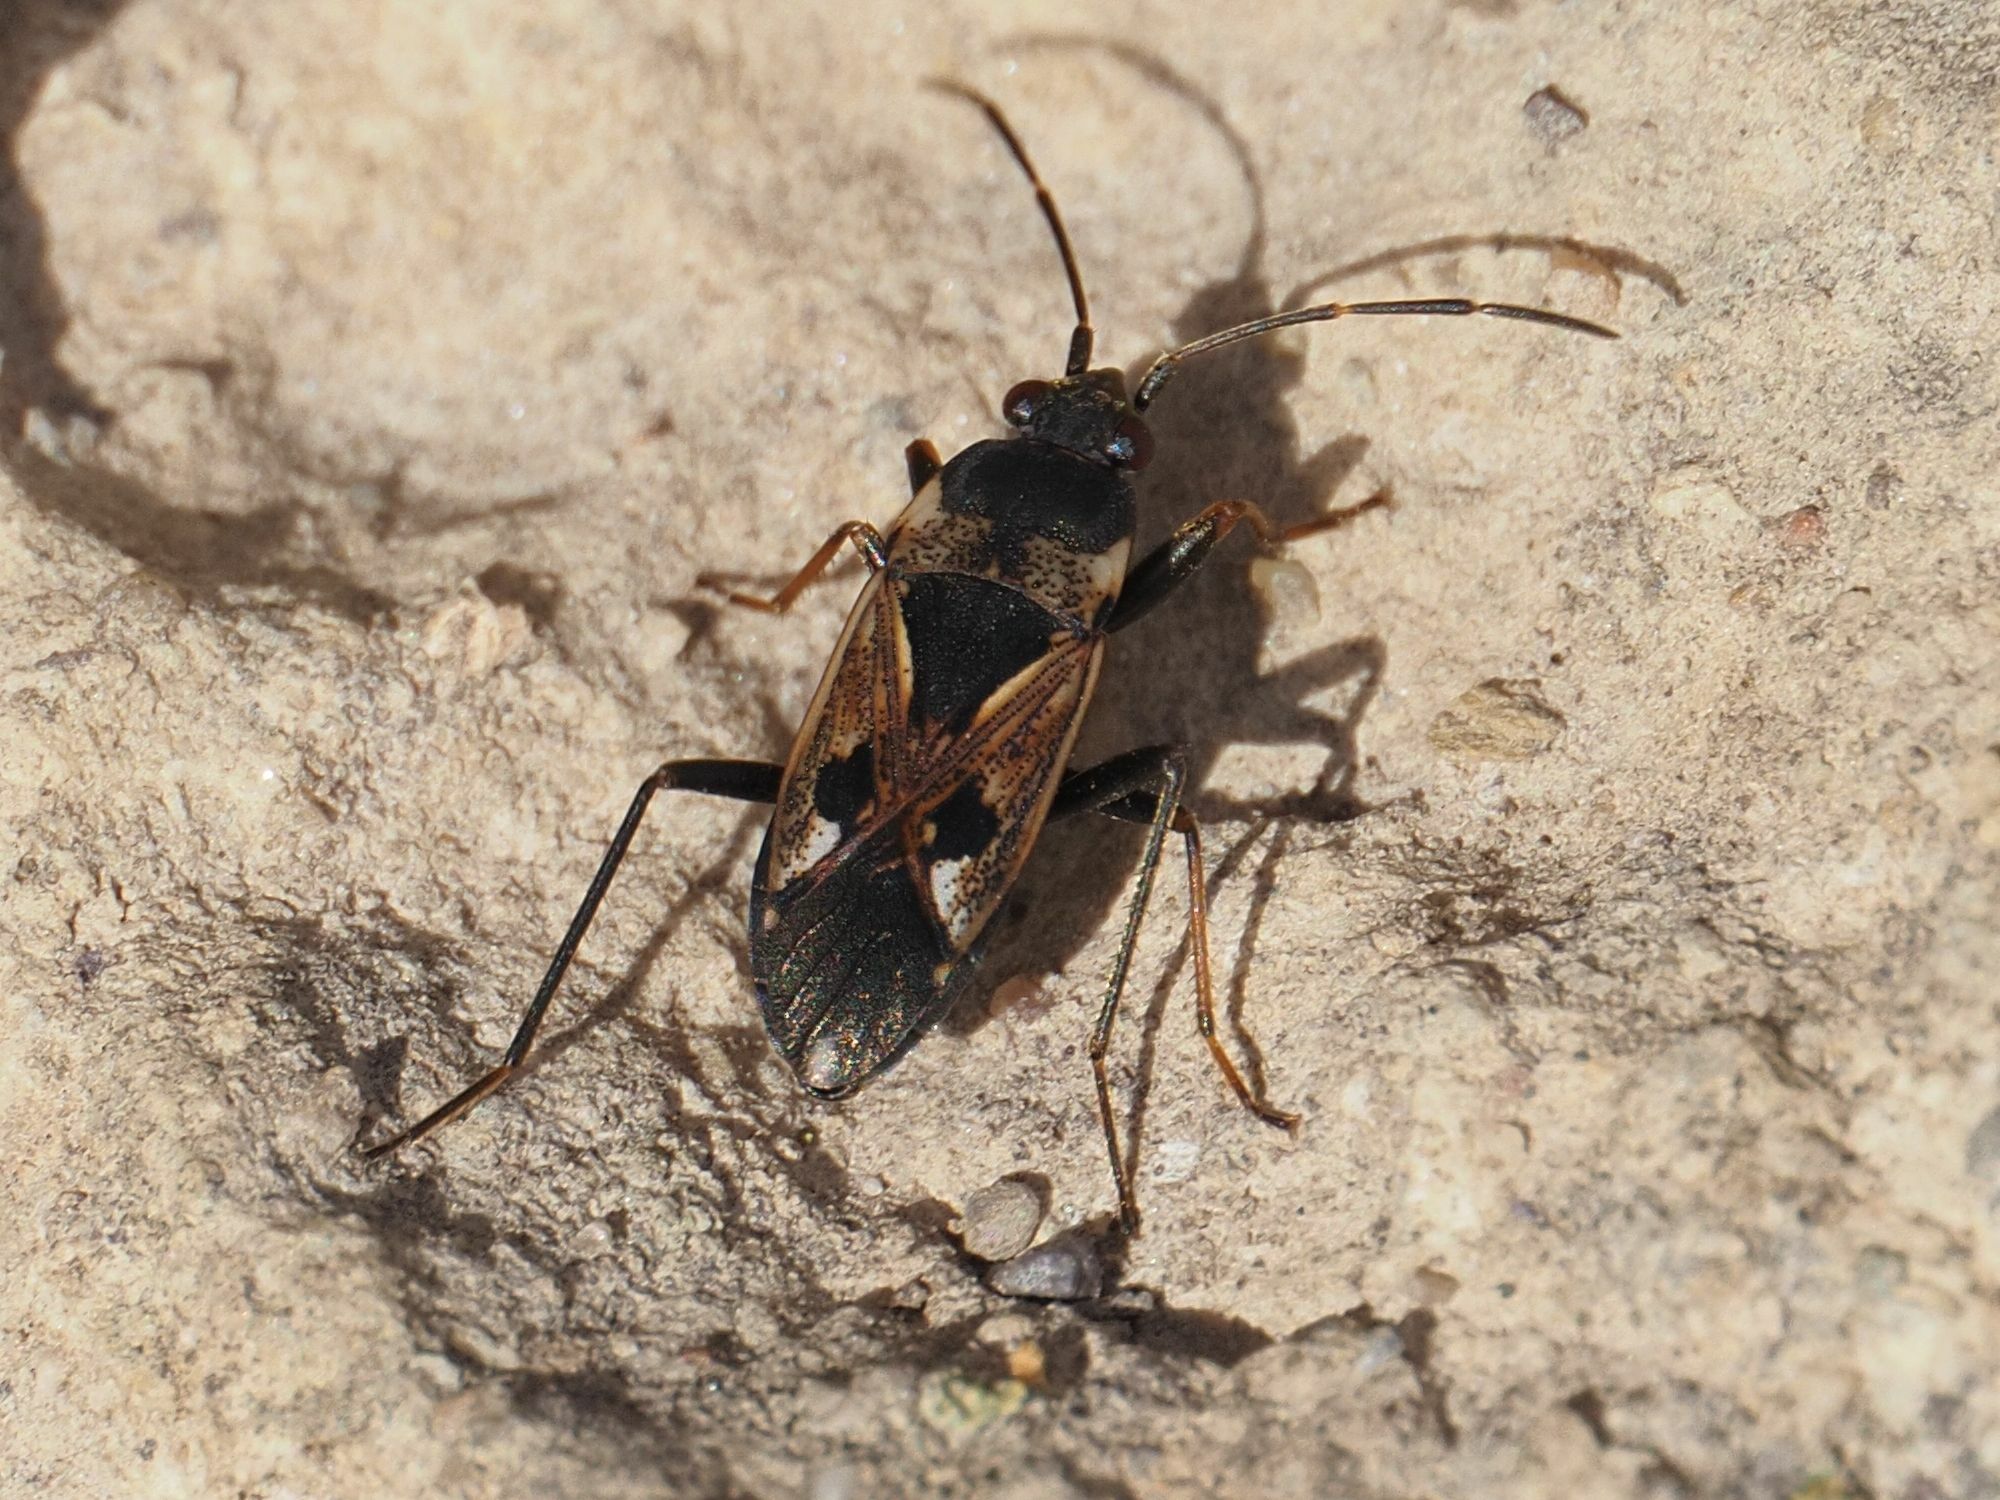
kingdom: Animalia
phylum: Arthropoda
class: Insecta
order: Hemiptera
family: Rhyparochromidae
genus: Rhyparochromus
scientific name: Rhyparochromus vulgaris
